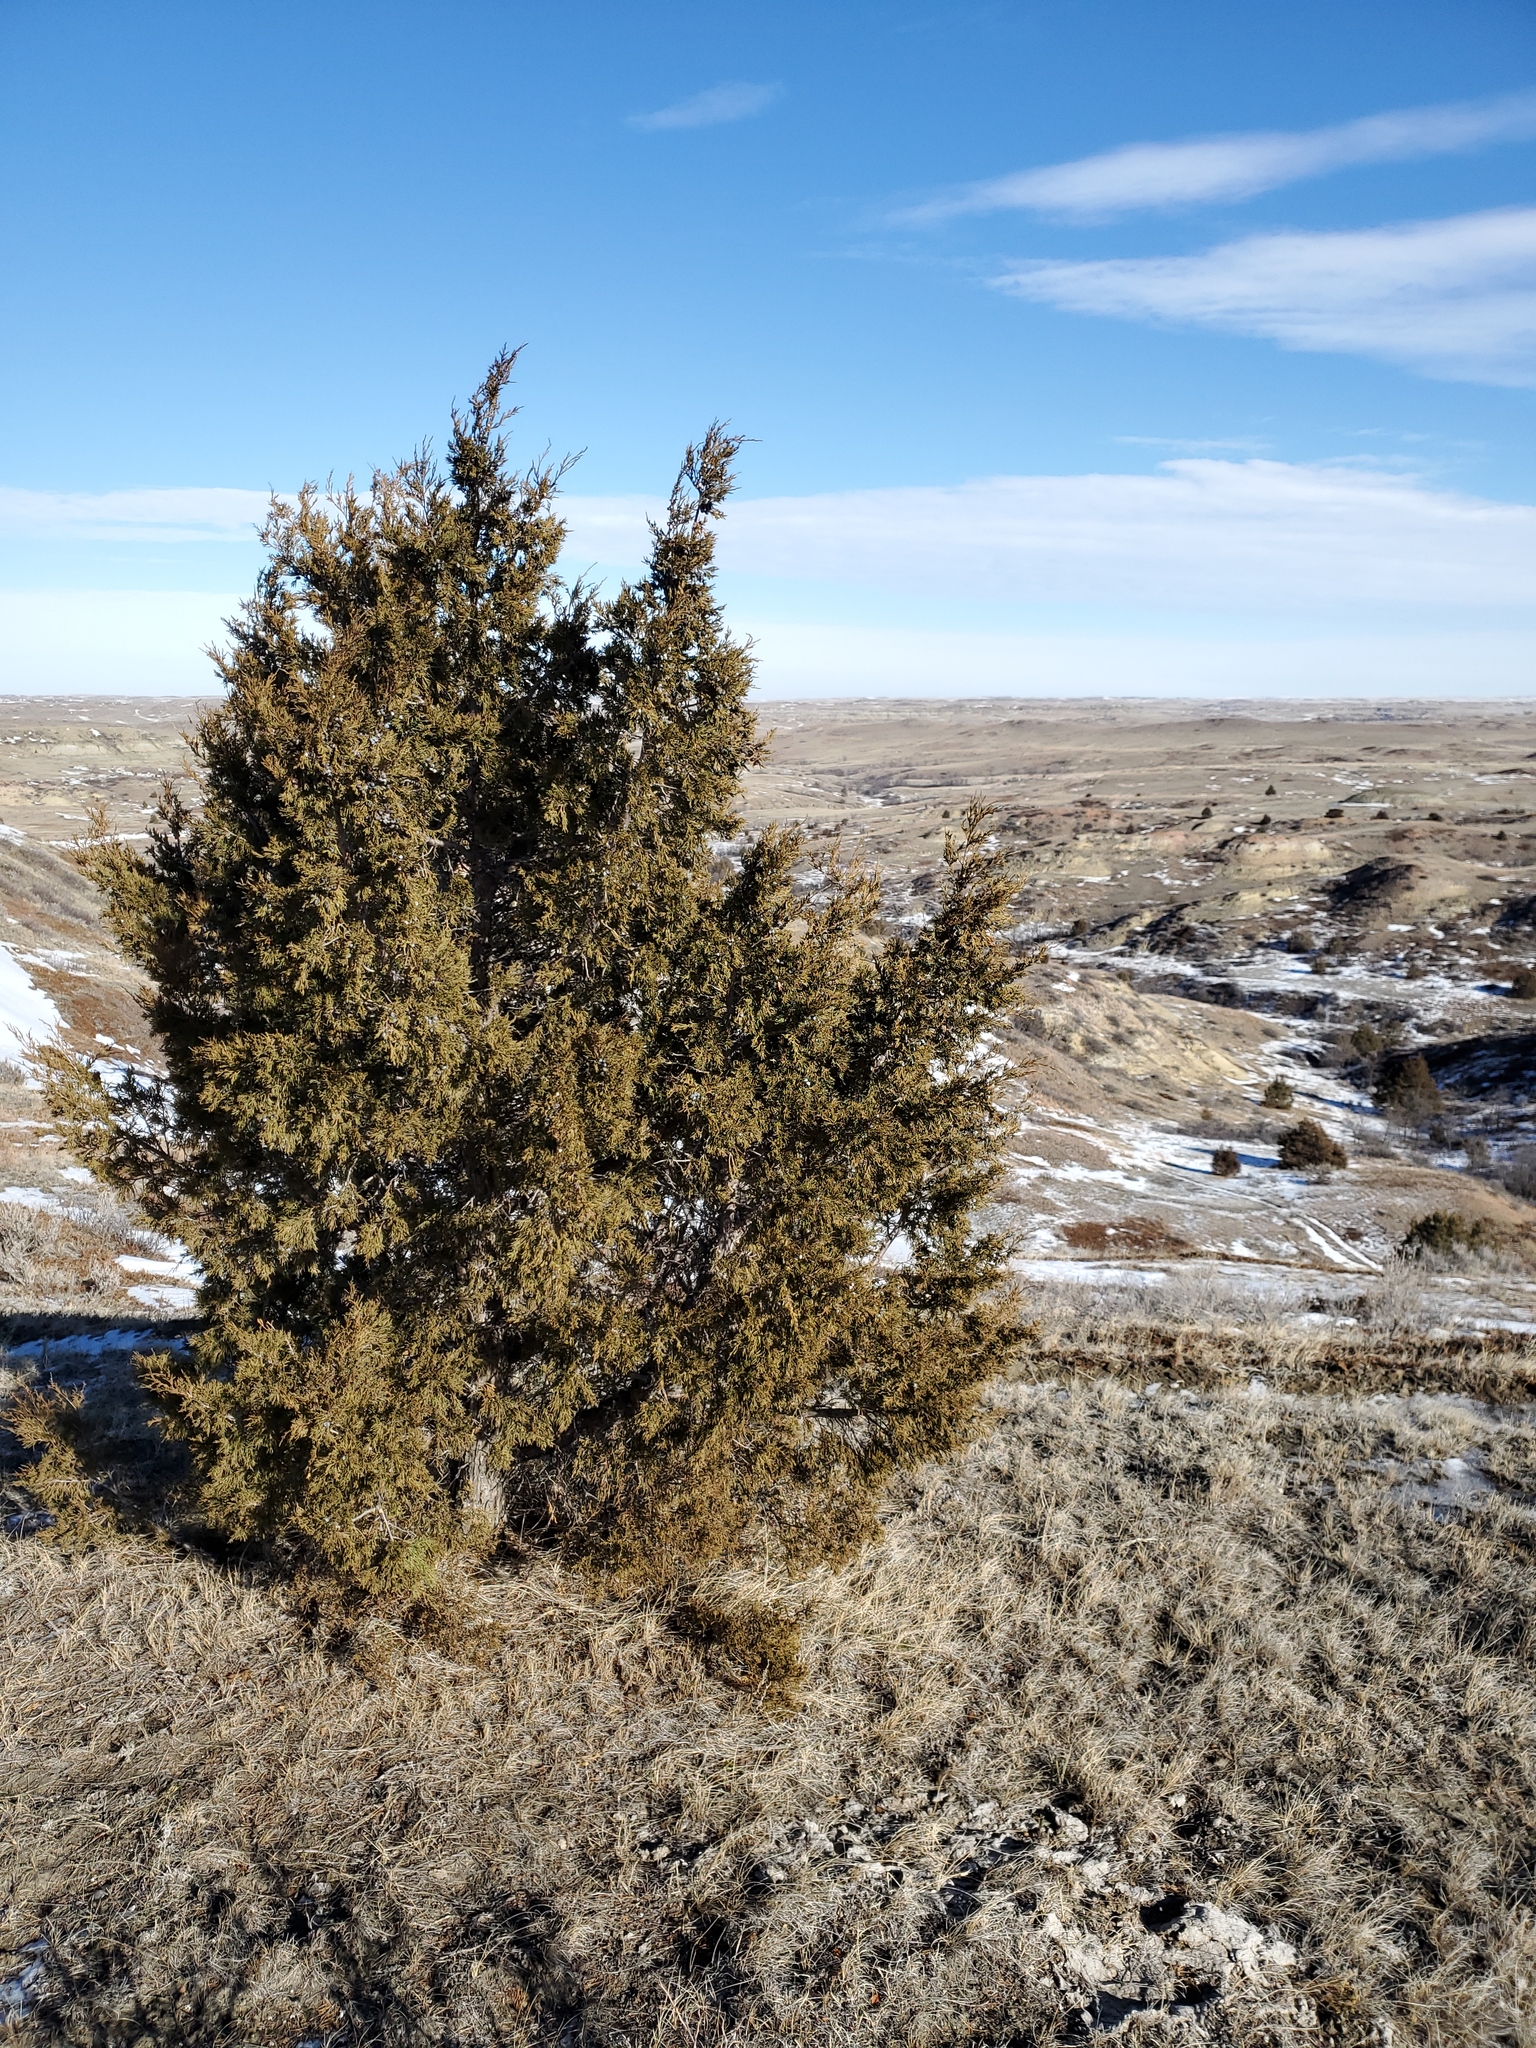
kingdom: Plantae
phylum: Tracheophyta
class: Pinopsida
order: Pinales
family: Cupressaceae
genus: Juniperus
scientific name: Juniperus scopulorum
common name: Rocky mountain juniper
